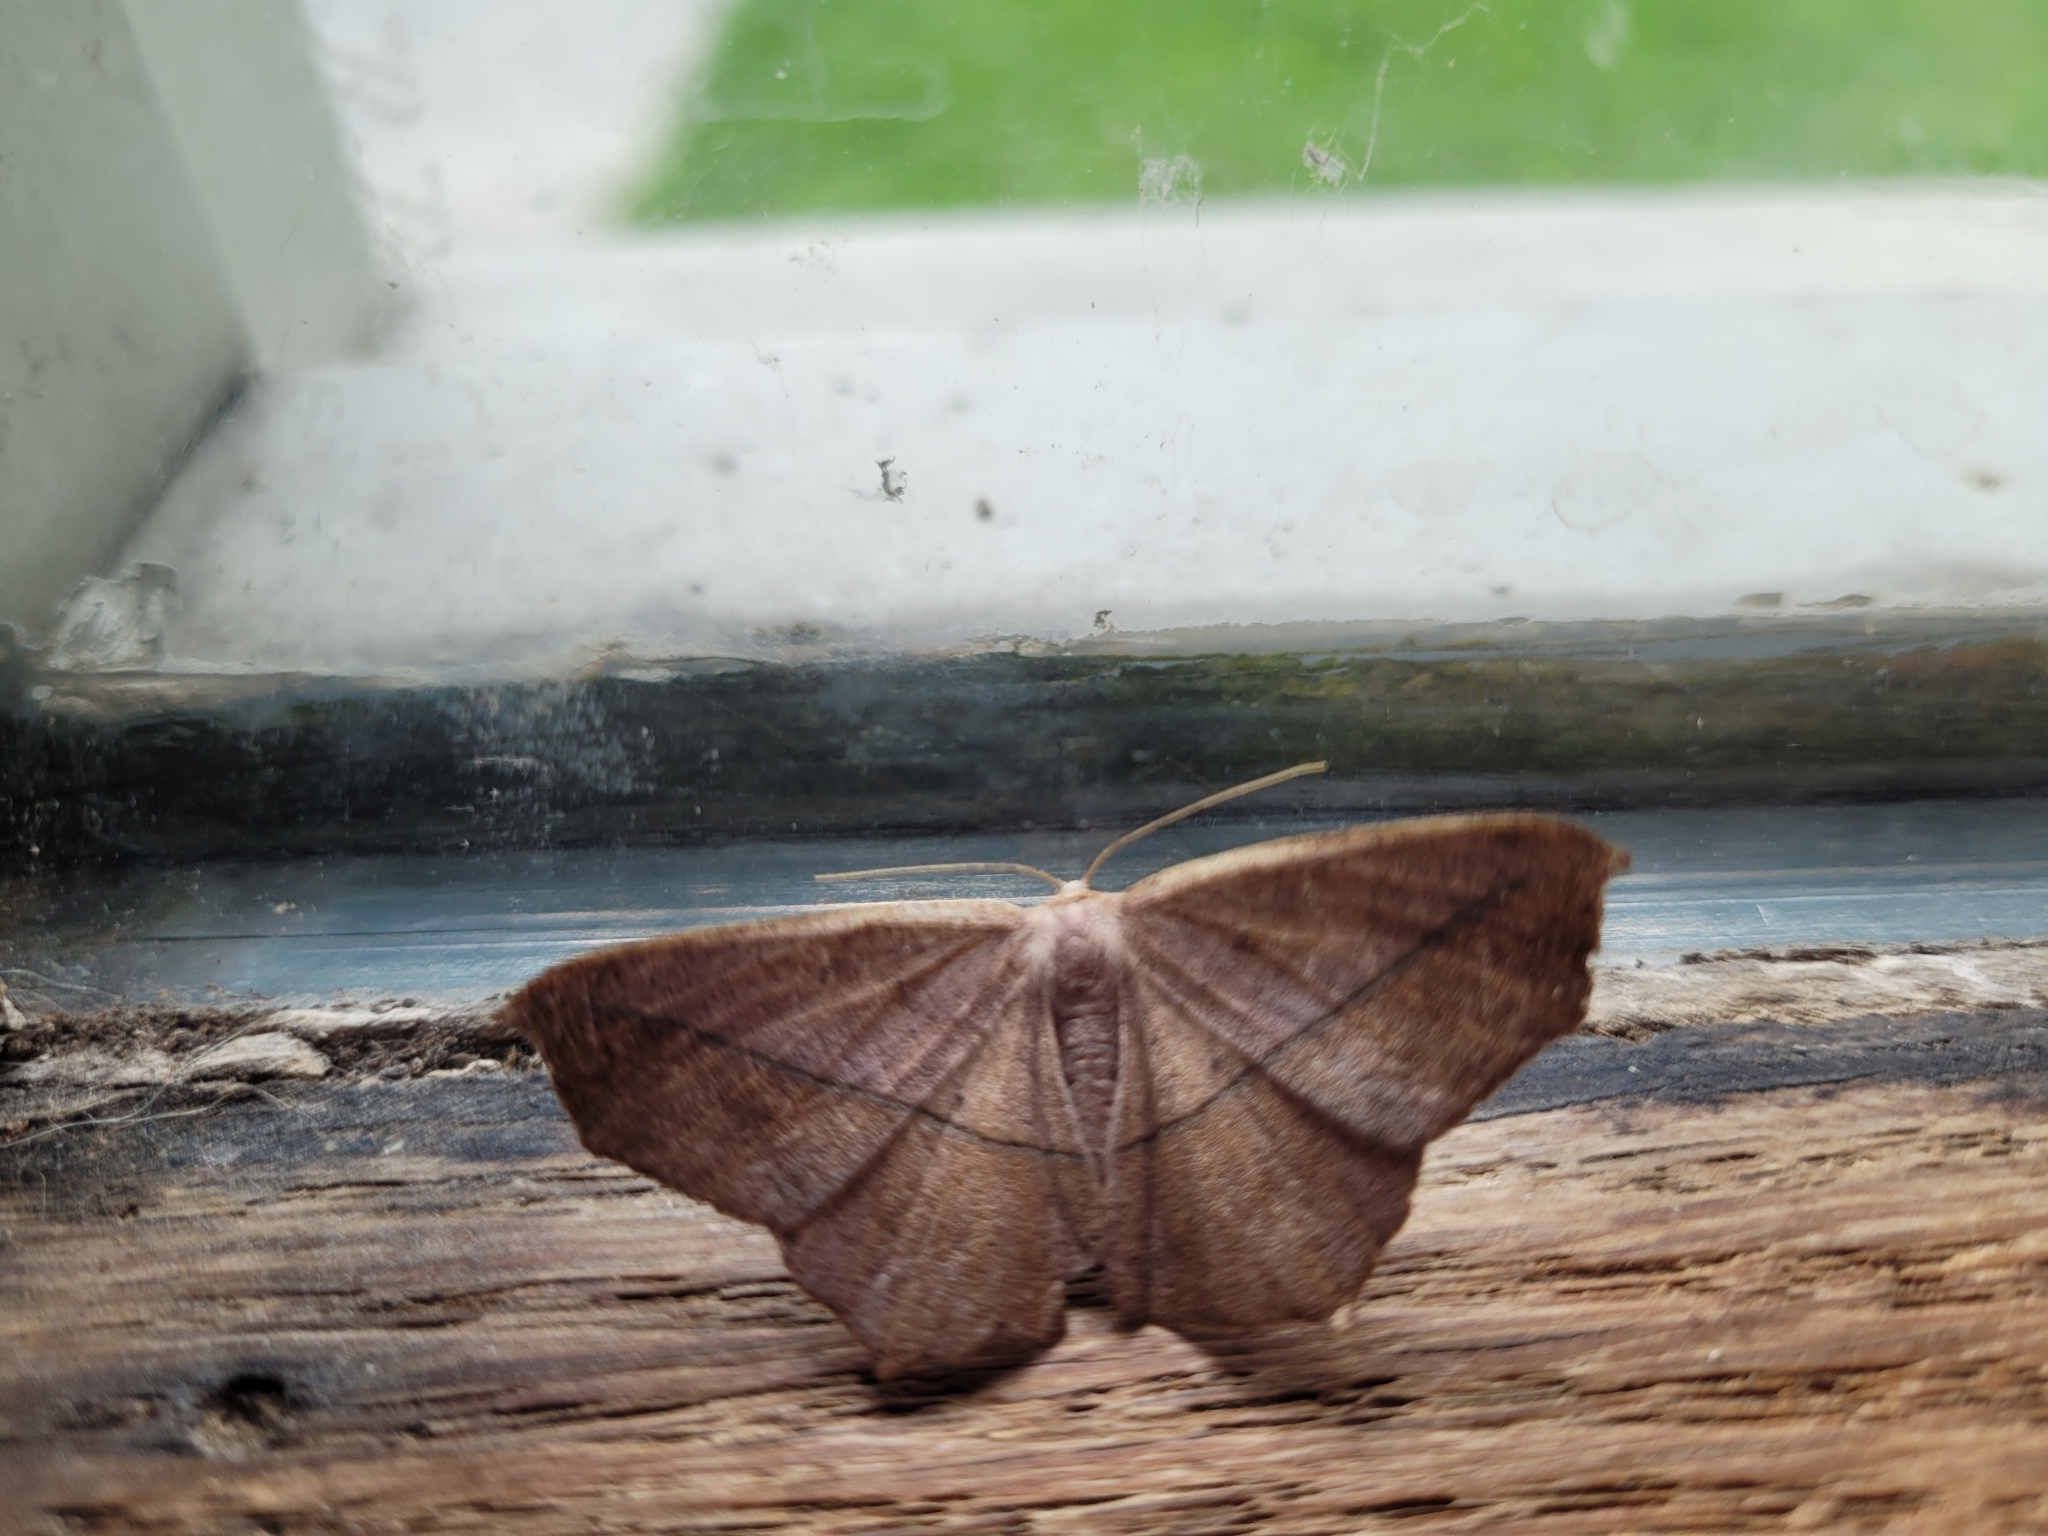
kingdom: Animalia
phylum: Arthropoda
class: Insecta
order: Lepidoptera
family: Geometridae
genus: Prochoerodes
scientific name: Prochoerodes lineola
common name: Large maple spanworm
